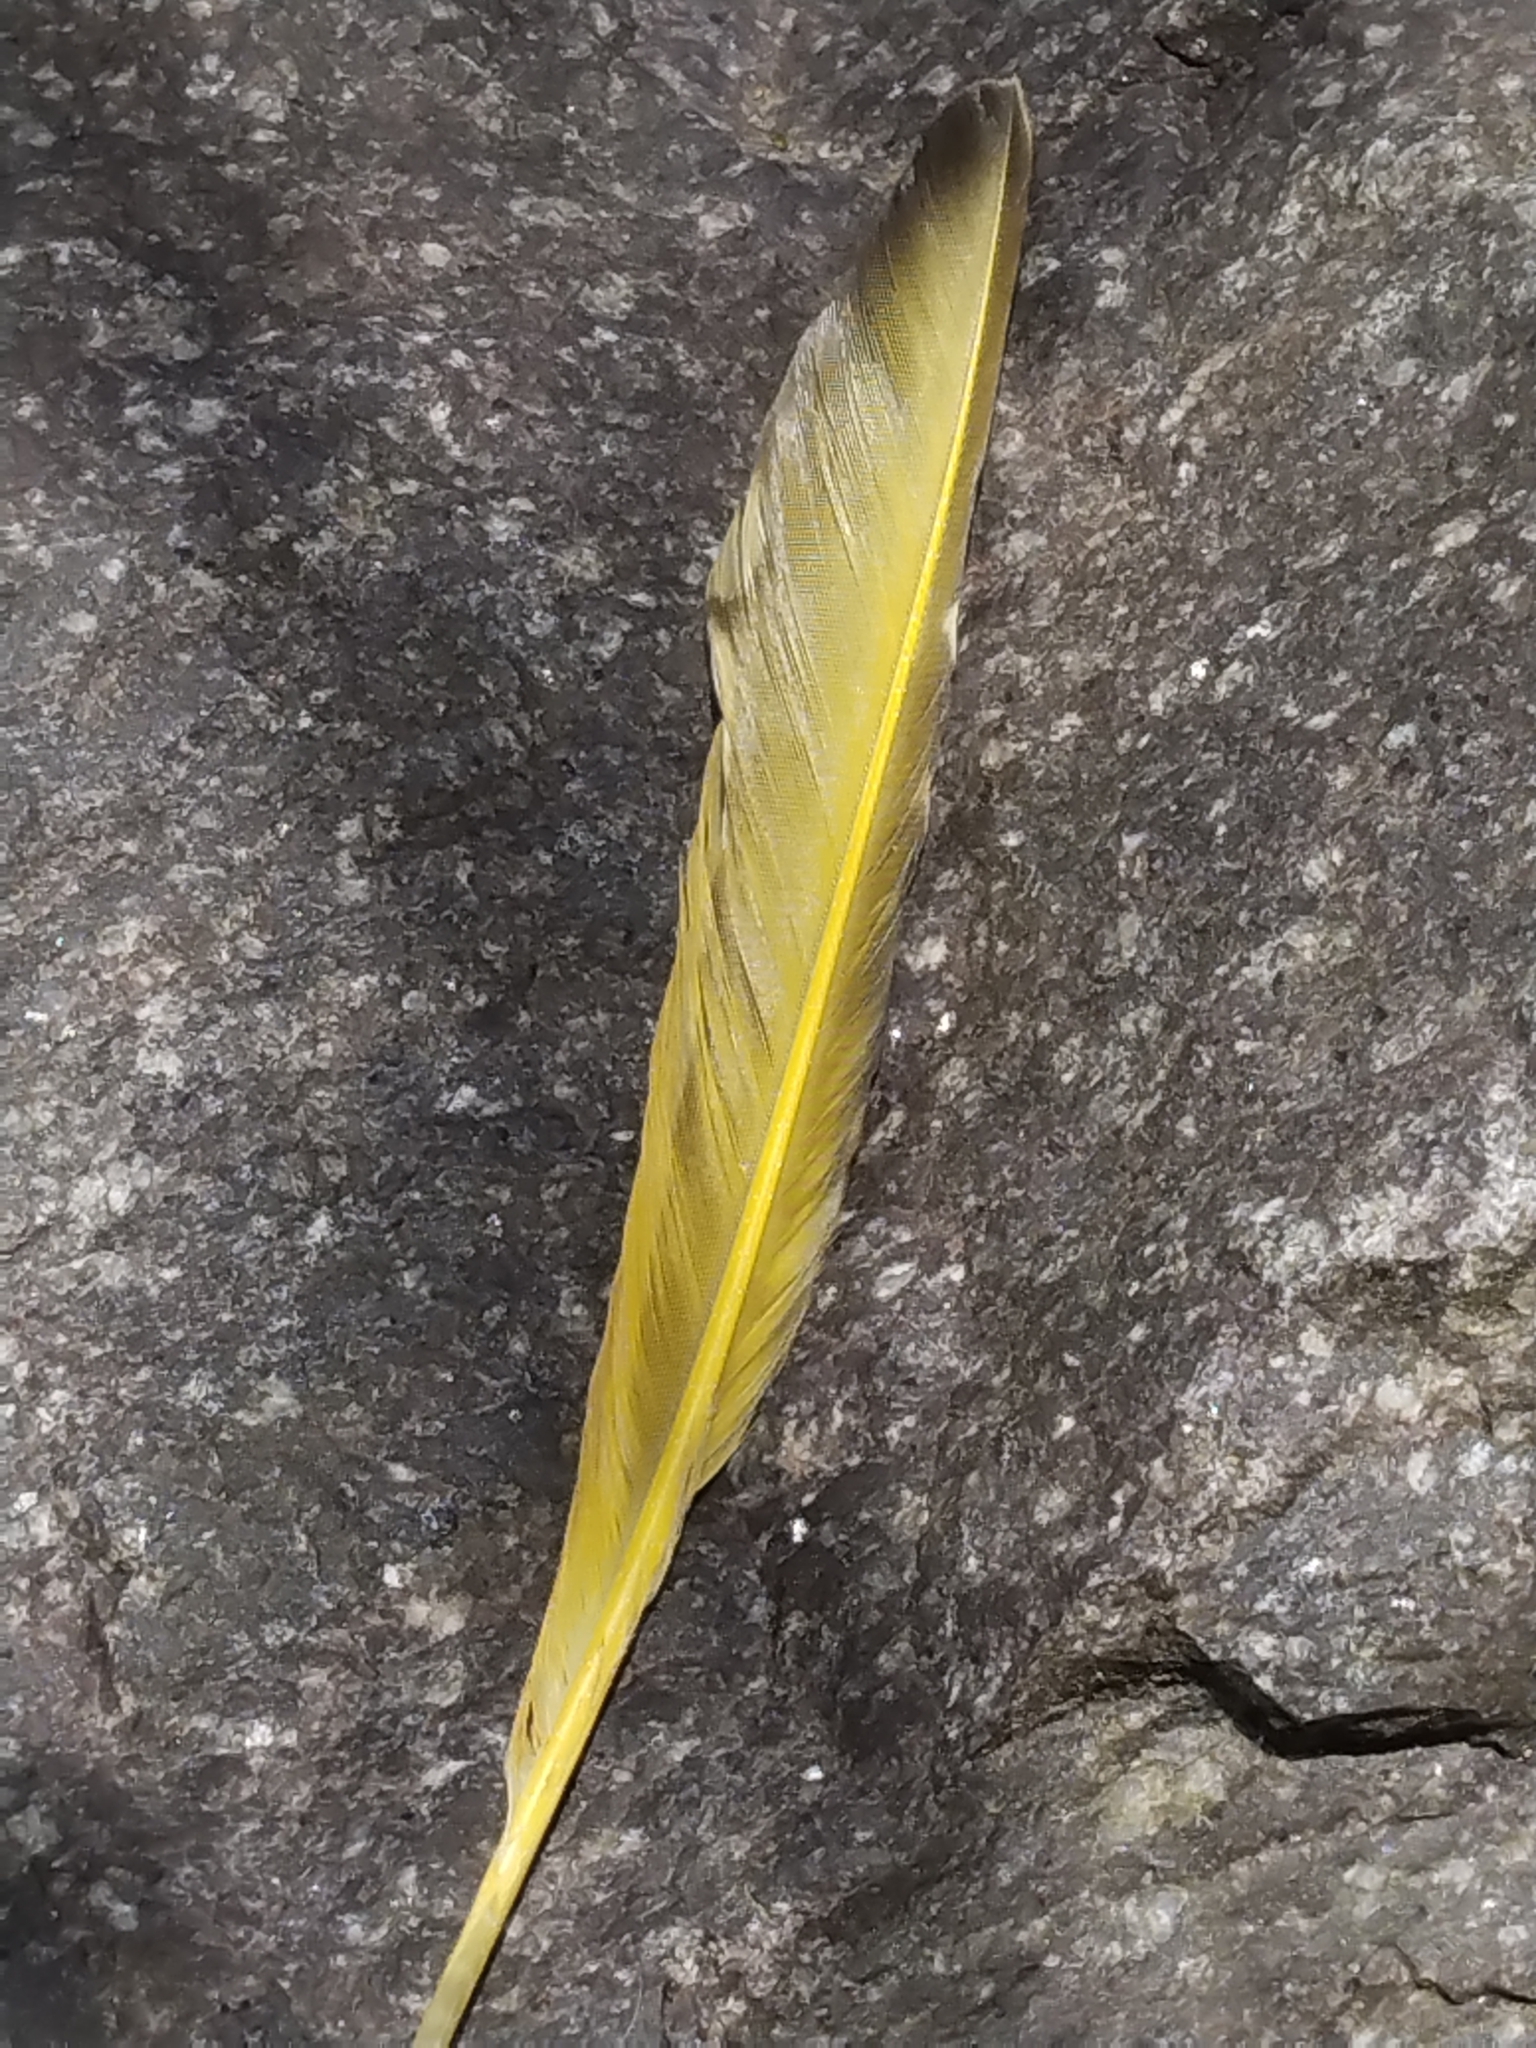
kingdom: Animalia
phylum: Chordata
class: Aves
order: Piciformes
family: Picidae
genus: Colaptes
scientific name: Colaptes auratus
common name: Northern flicker
